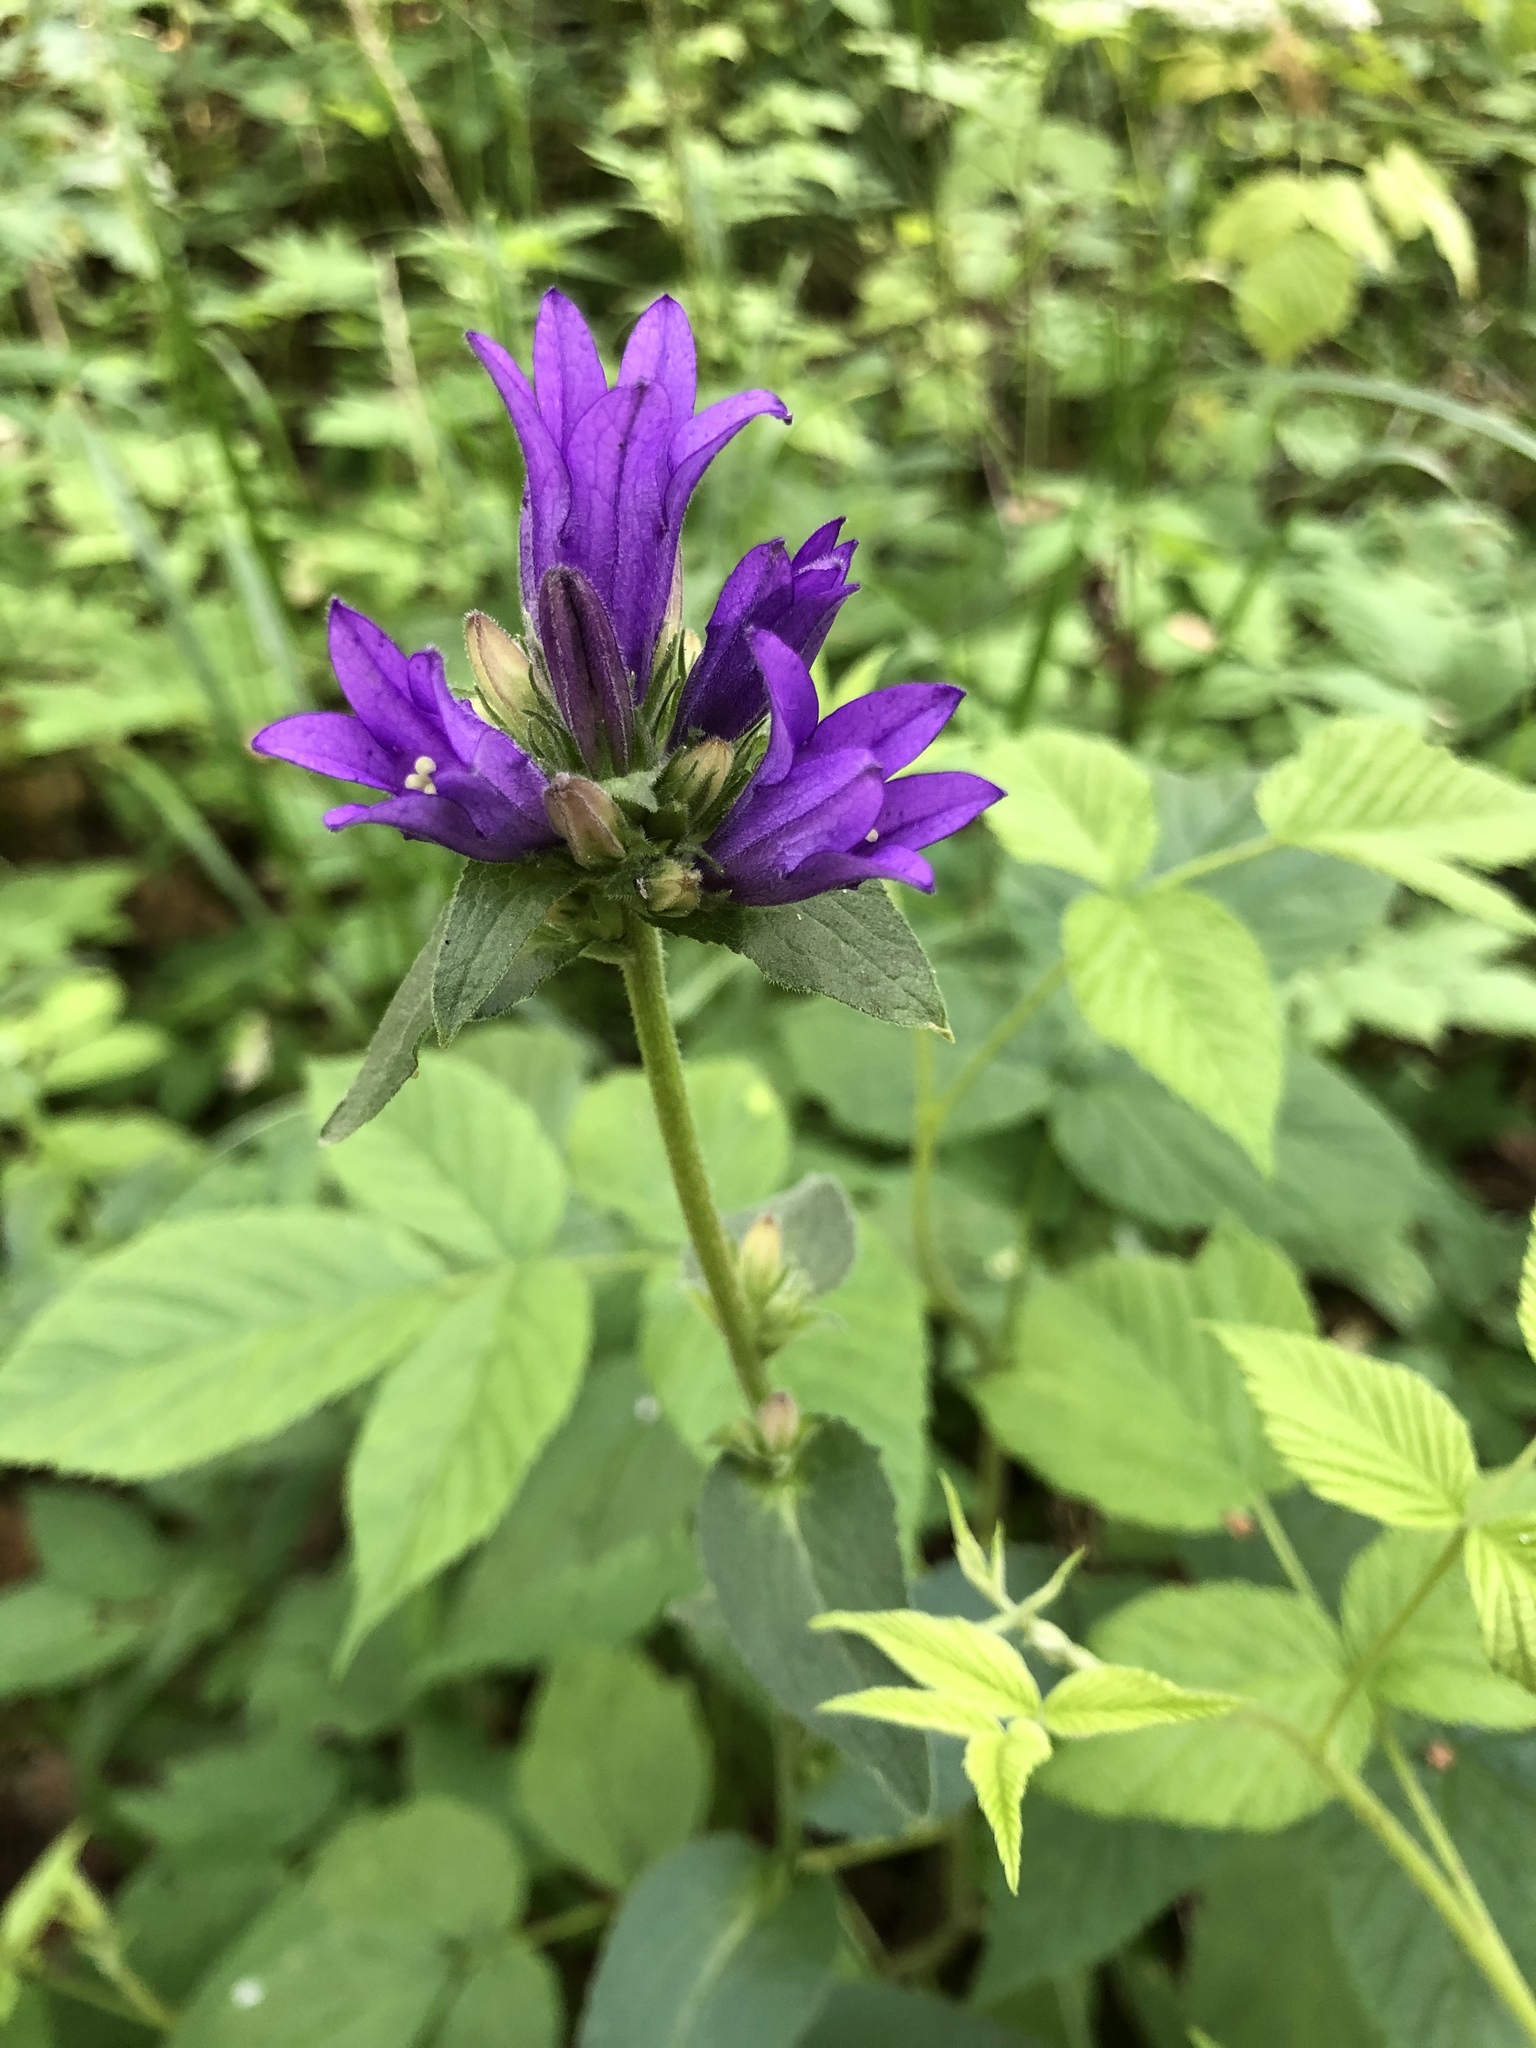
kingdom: Plantae
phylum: Tracheophyta
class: Magnoliopsida
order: Asterales
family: Campanulaceae
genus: Campanula
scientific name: Campanula glomerata
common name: Clustered bellflower
